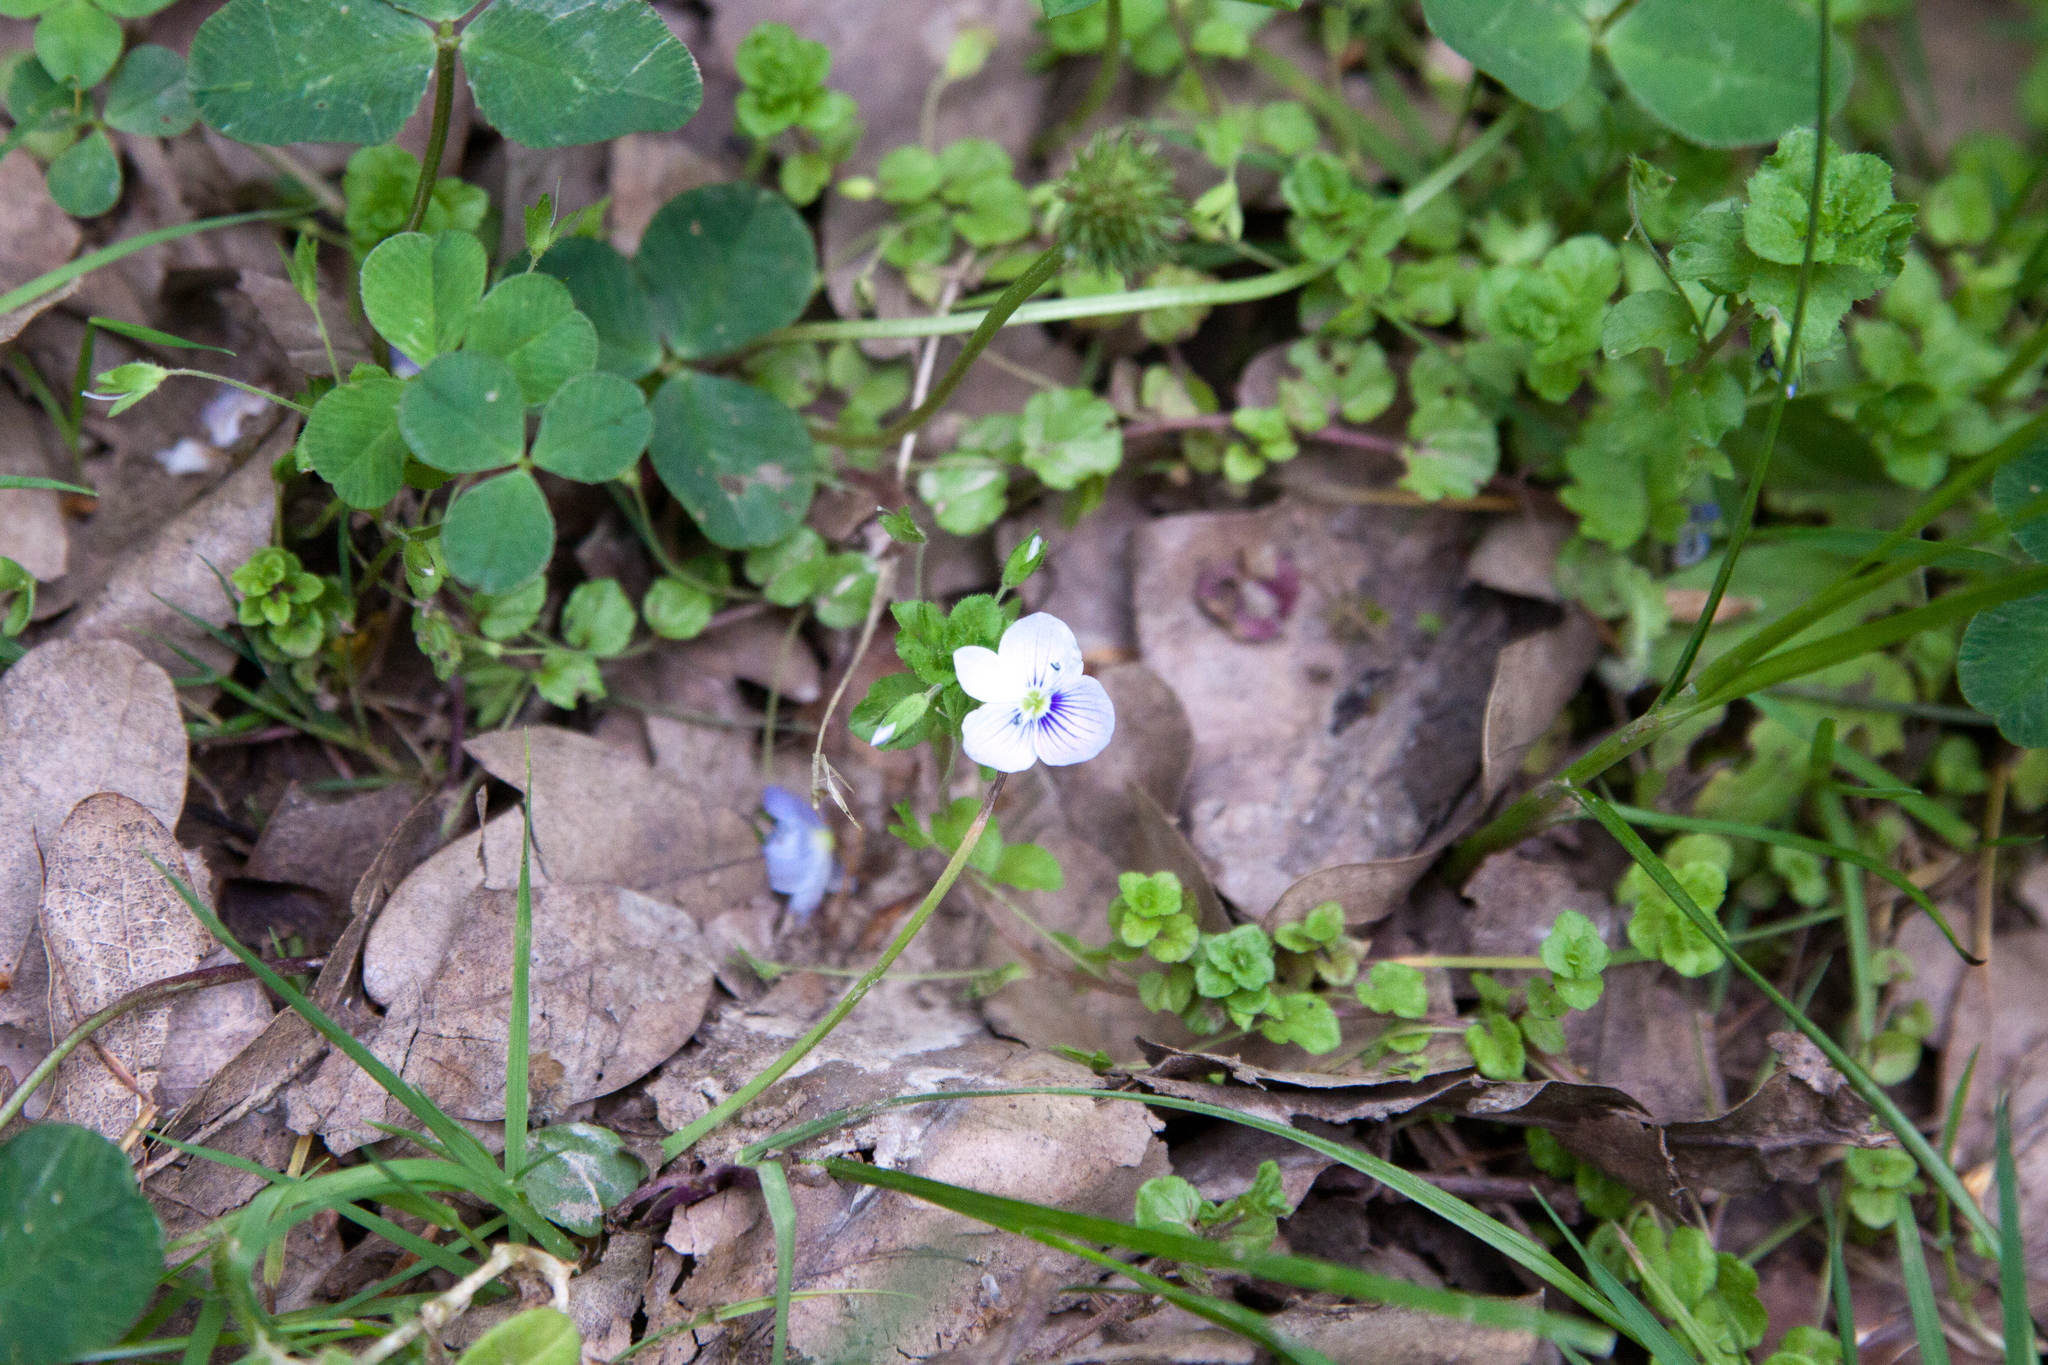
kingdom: Plantae
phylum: Tracheophyta
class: Magnoliopsida
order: Lamiales
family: Plantaginaceae
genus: Veronica
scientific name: Veronica filiformis
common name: Slender speedwell
